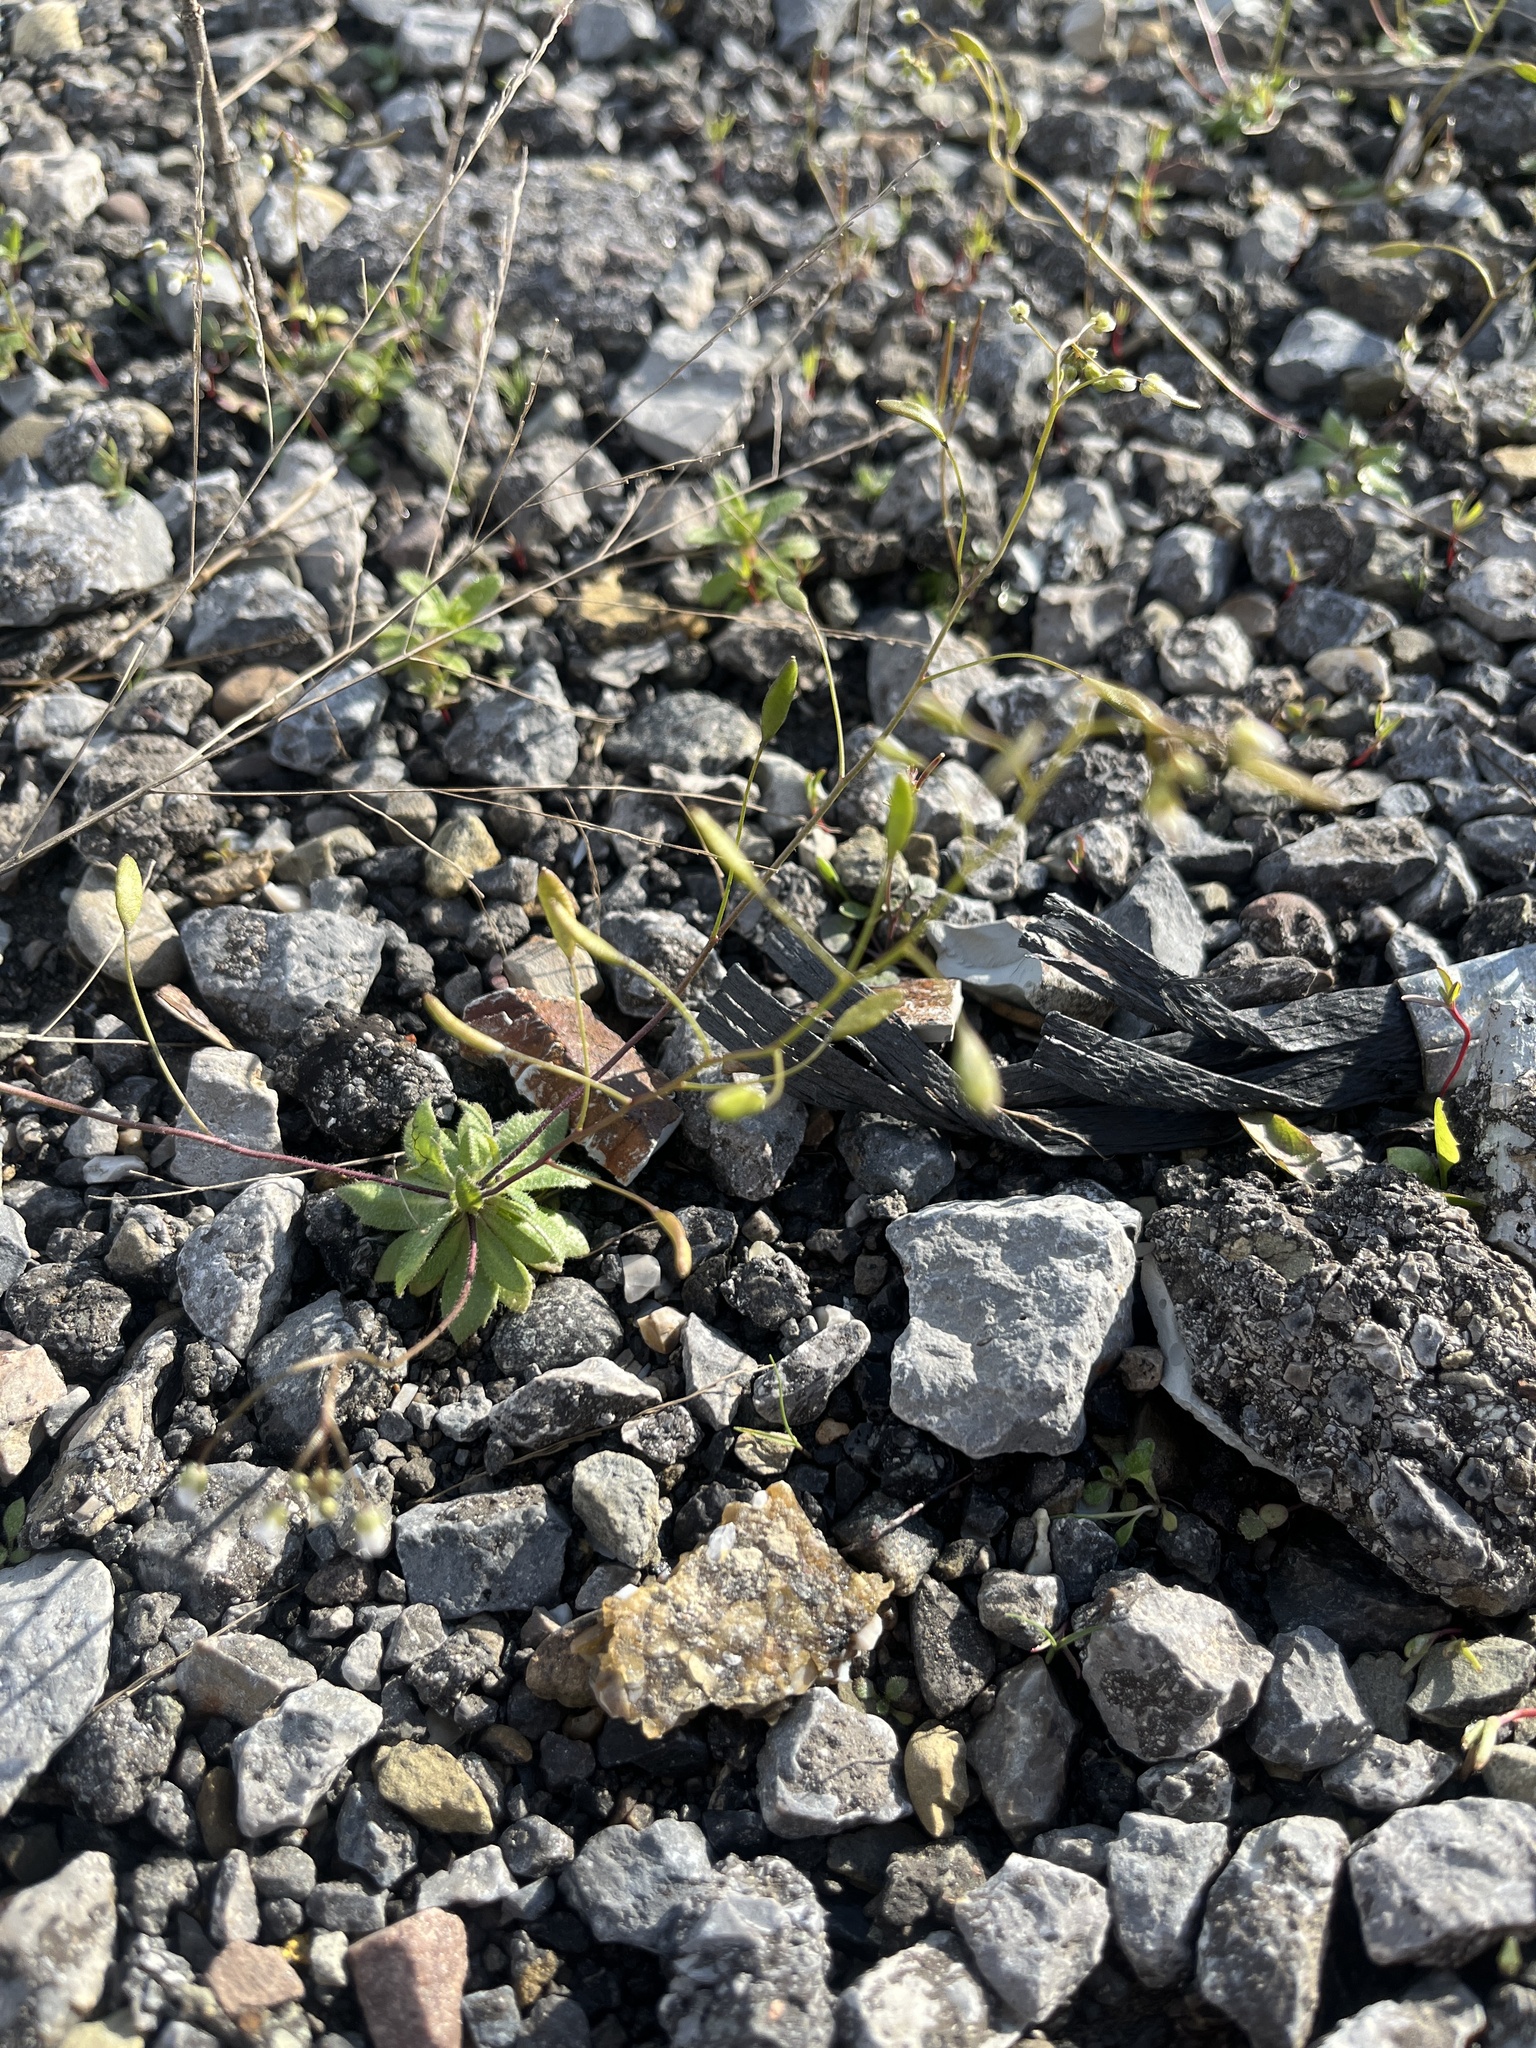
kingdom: Plantae
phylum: Tracheophyta
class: Magnoliopsida
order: Brassicales
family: Brassicaceae
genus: Draba
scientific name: Draba verna
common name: Spring draba
